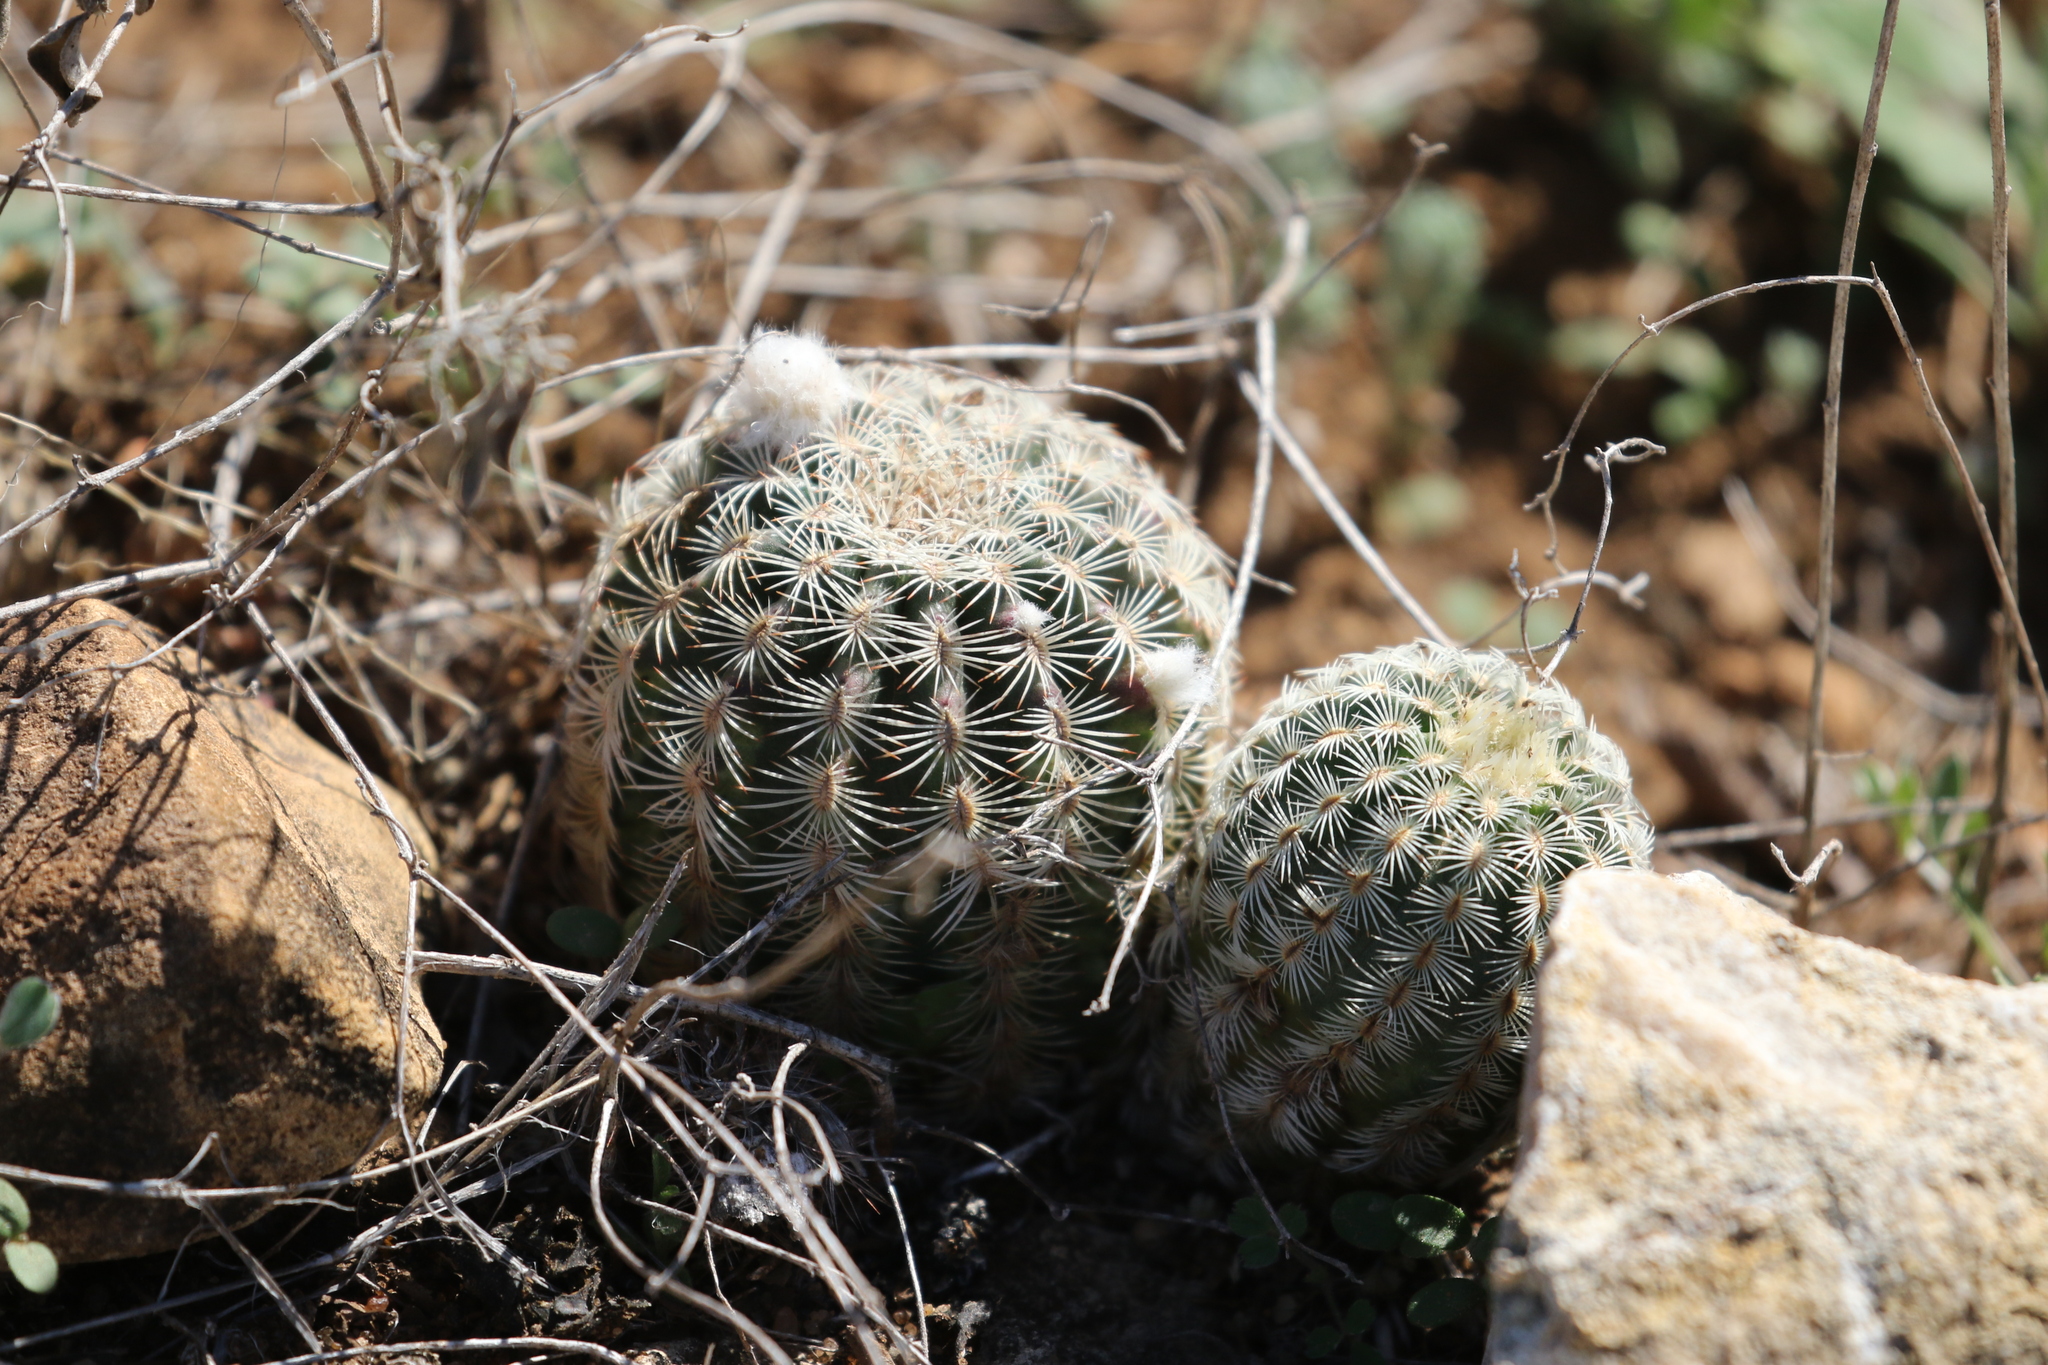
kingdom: Plantae
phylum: Tracheophyta
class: Magnoliopsida
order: Caryophyllales
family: Cactaceae
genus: Echinocereus
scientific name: Echinocereus reichenbachii
